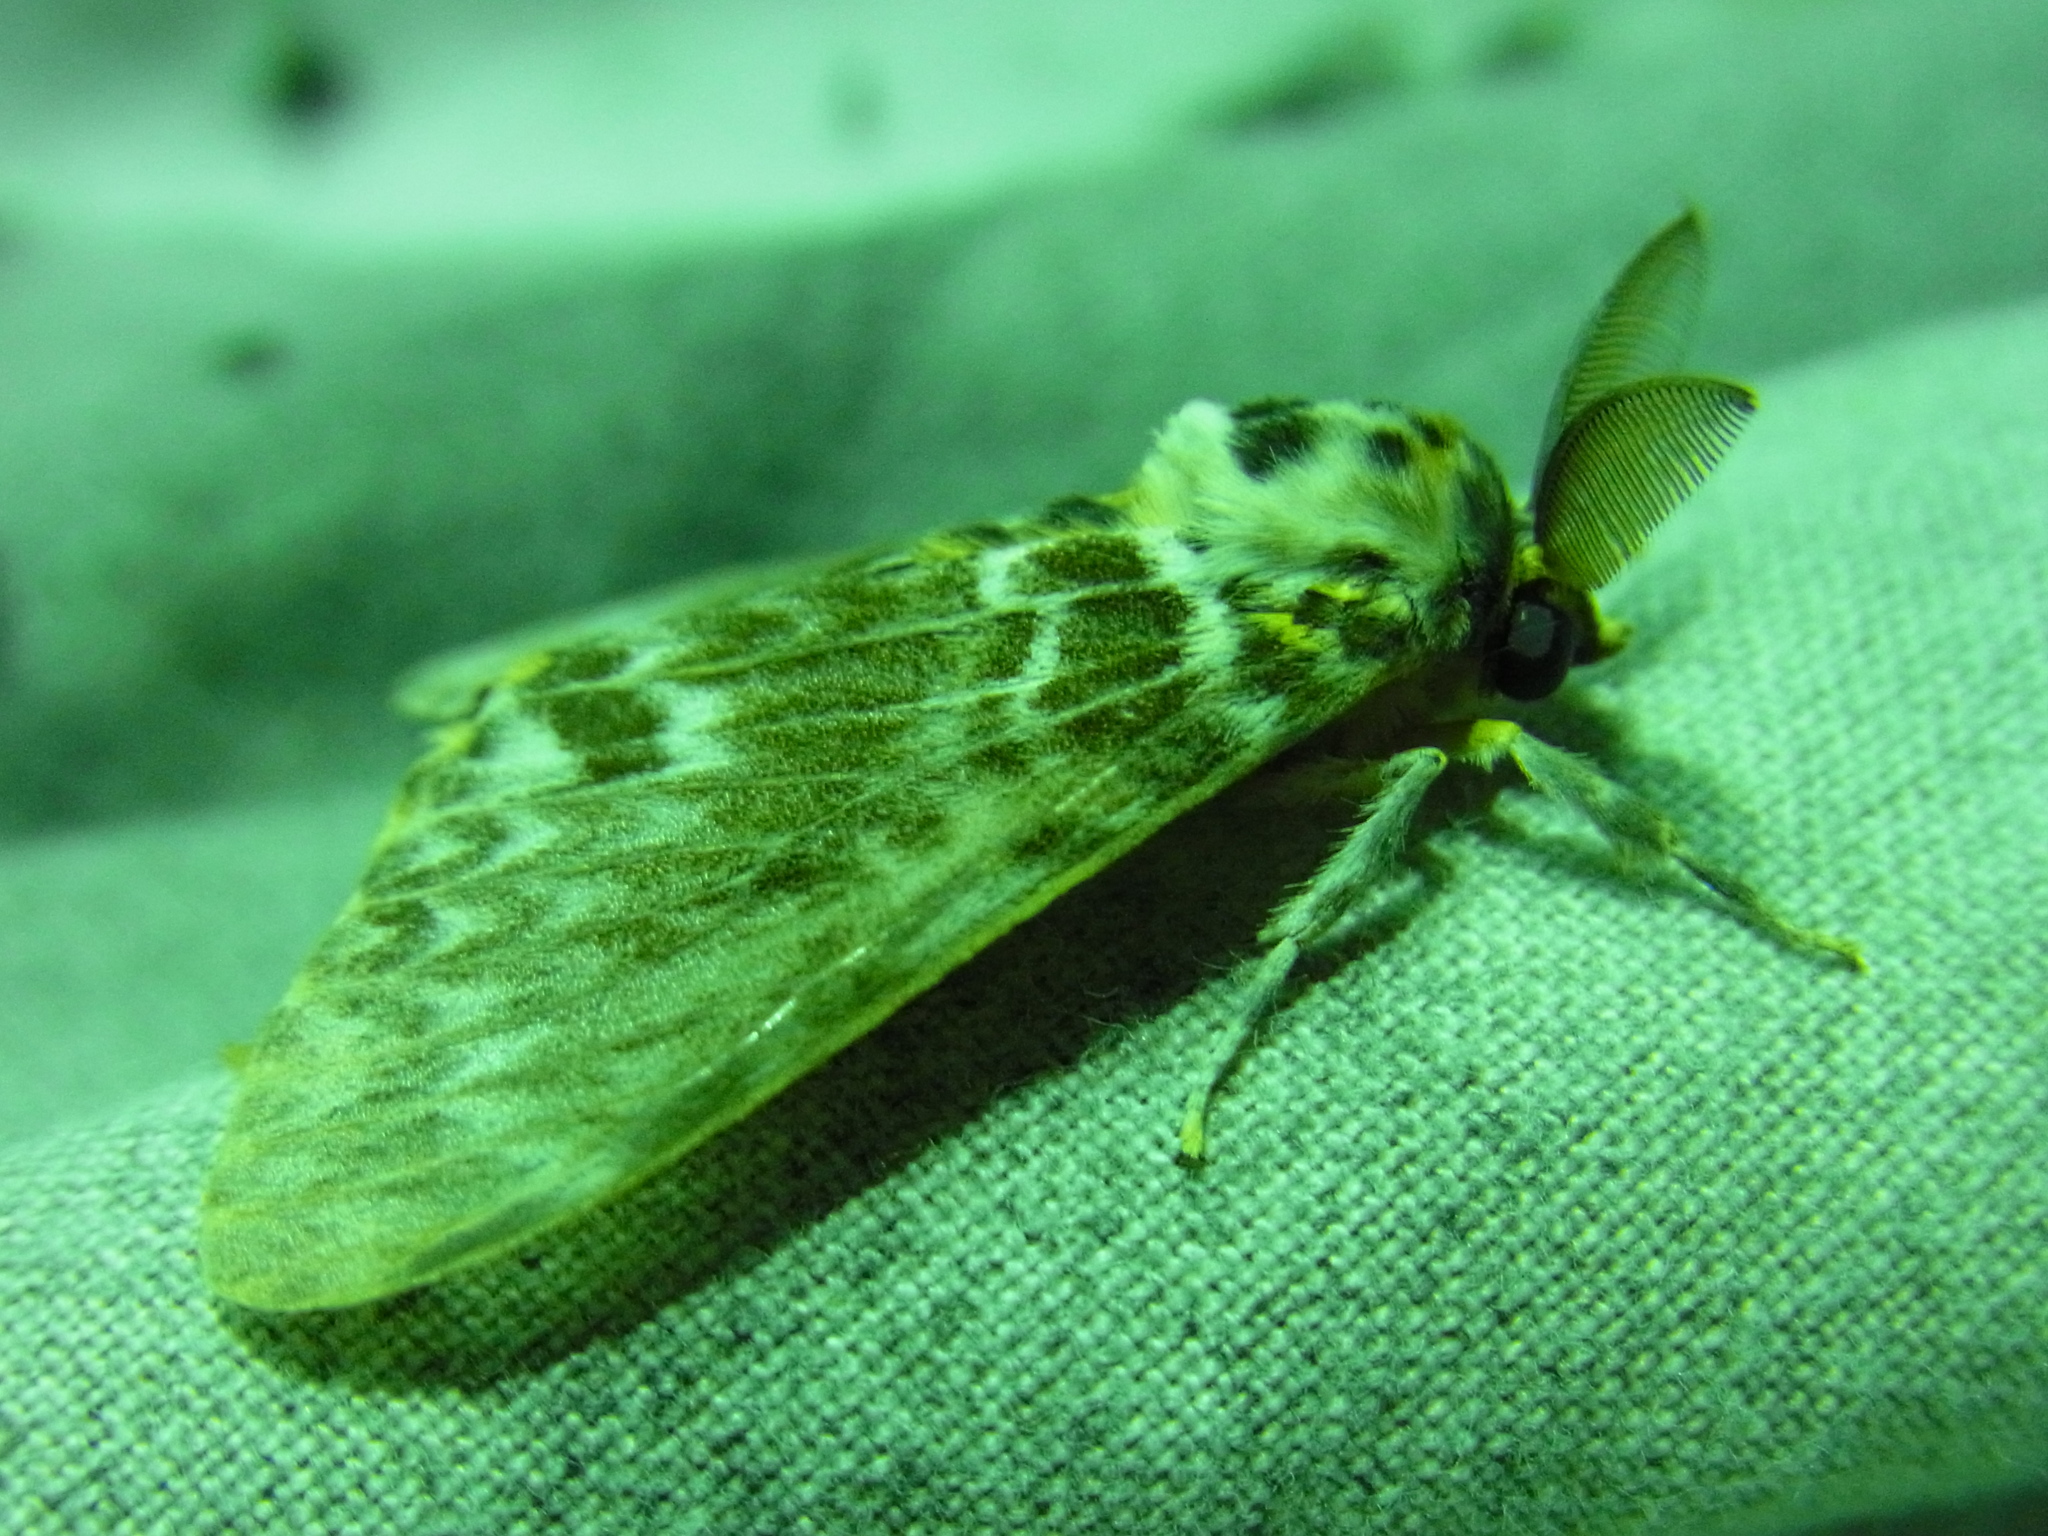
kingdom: Animalia
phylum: Arthropoda
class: Insecta
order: Lepidoptera
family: Erebidae
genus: Lymantria
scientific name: Lymantria mathura
